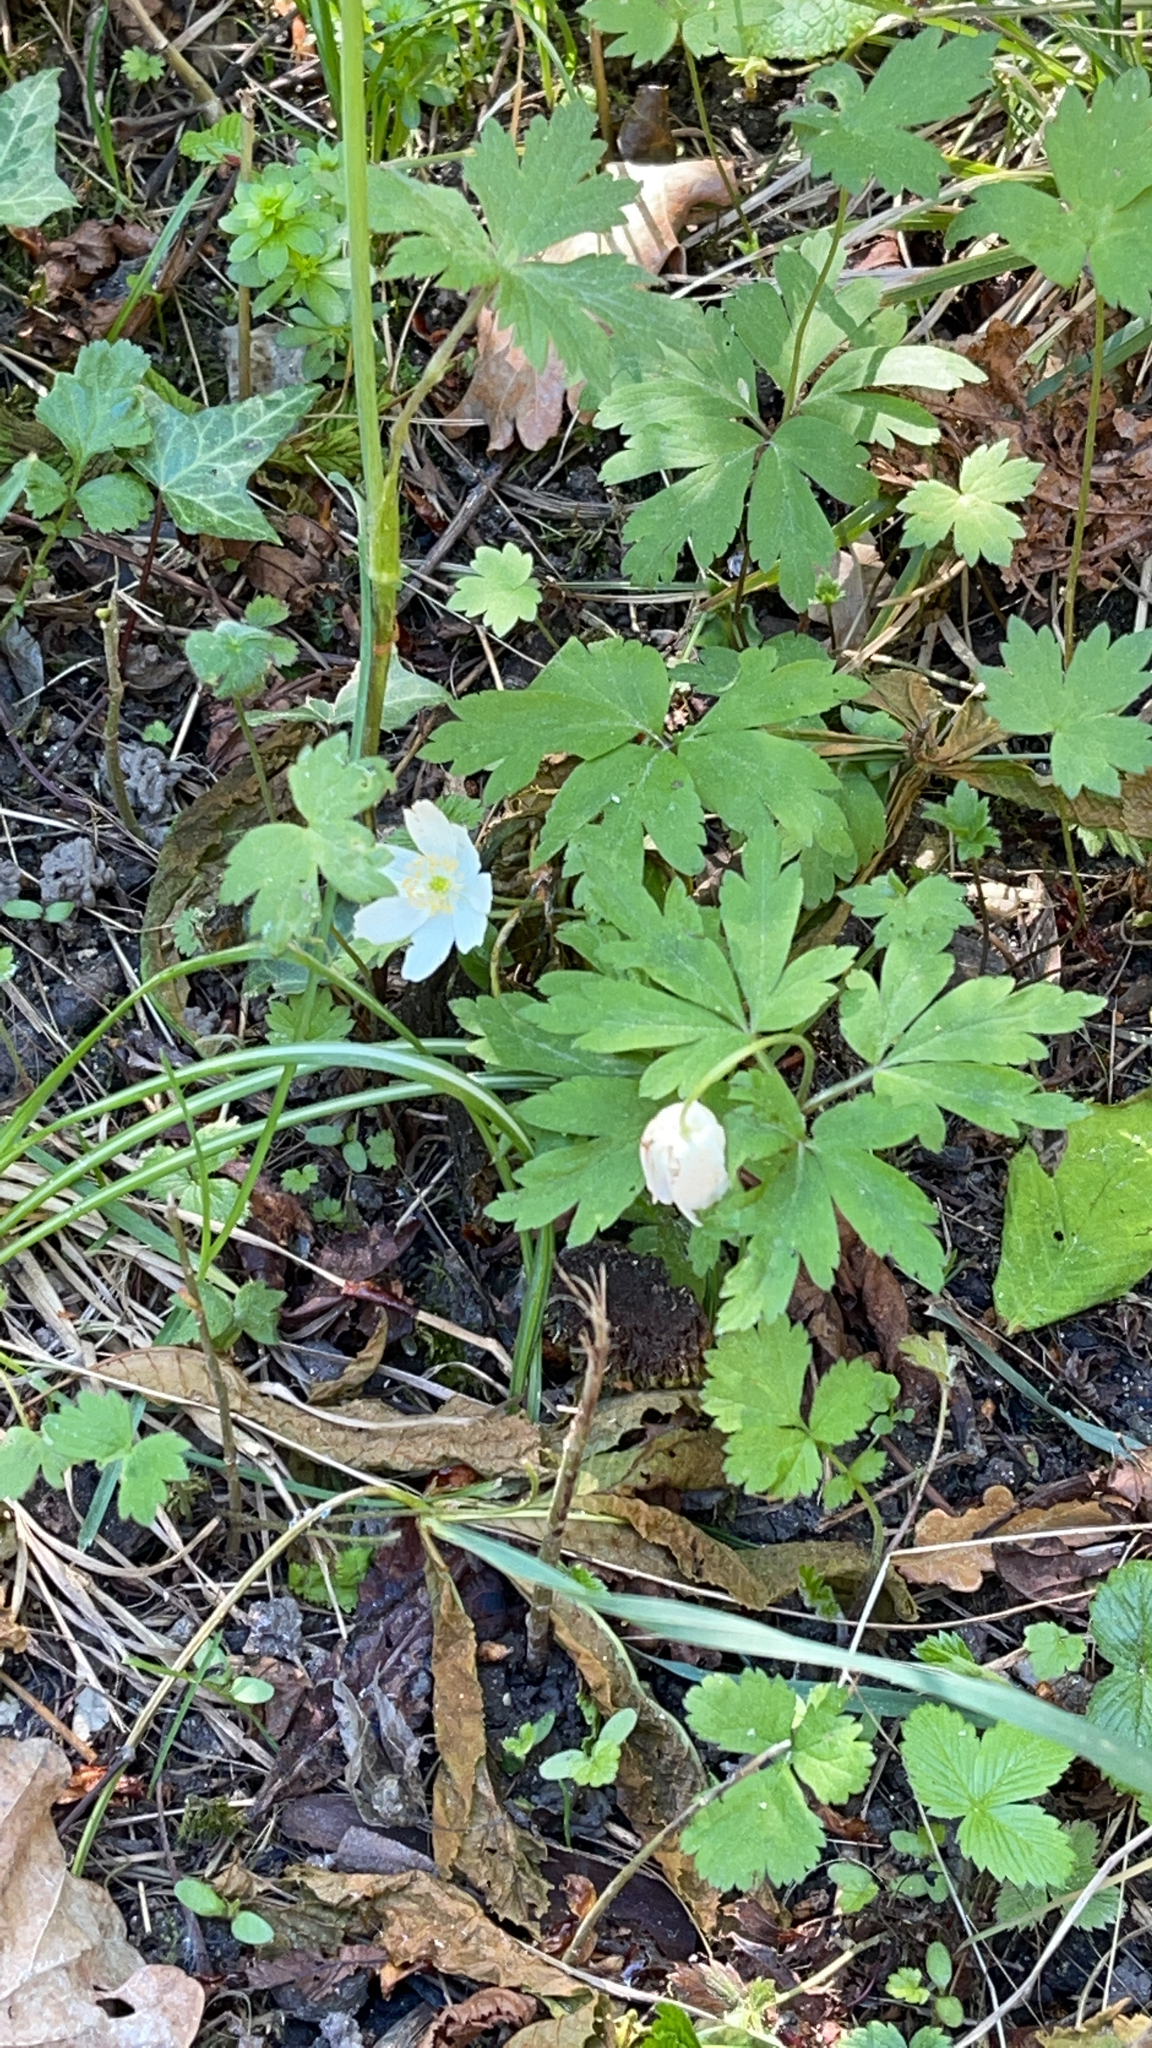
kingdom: Plantae
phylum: Tracheophyta
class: Magnoliopsida
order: Ranunculales
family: Ranunculaceae
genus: Anemone
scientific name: Anemone nemorosa
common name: Wood anemone
